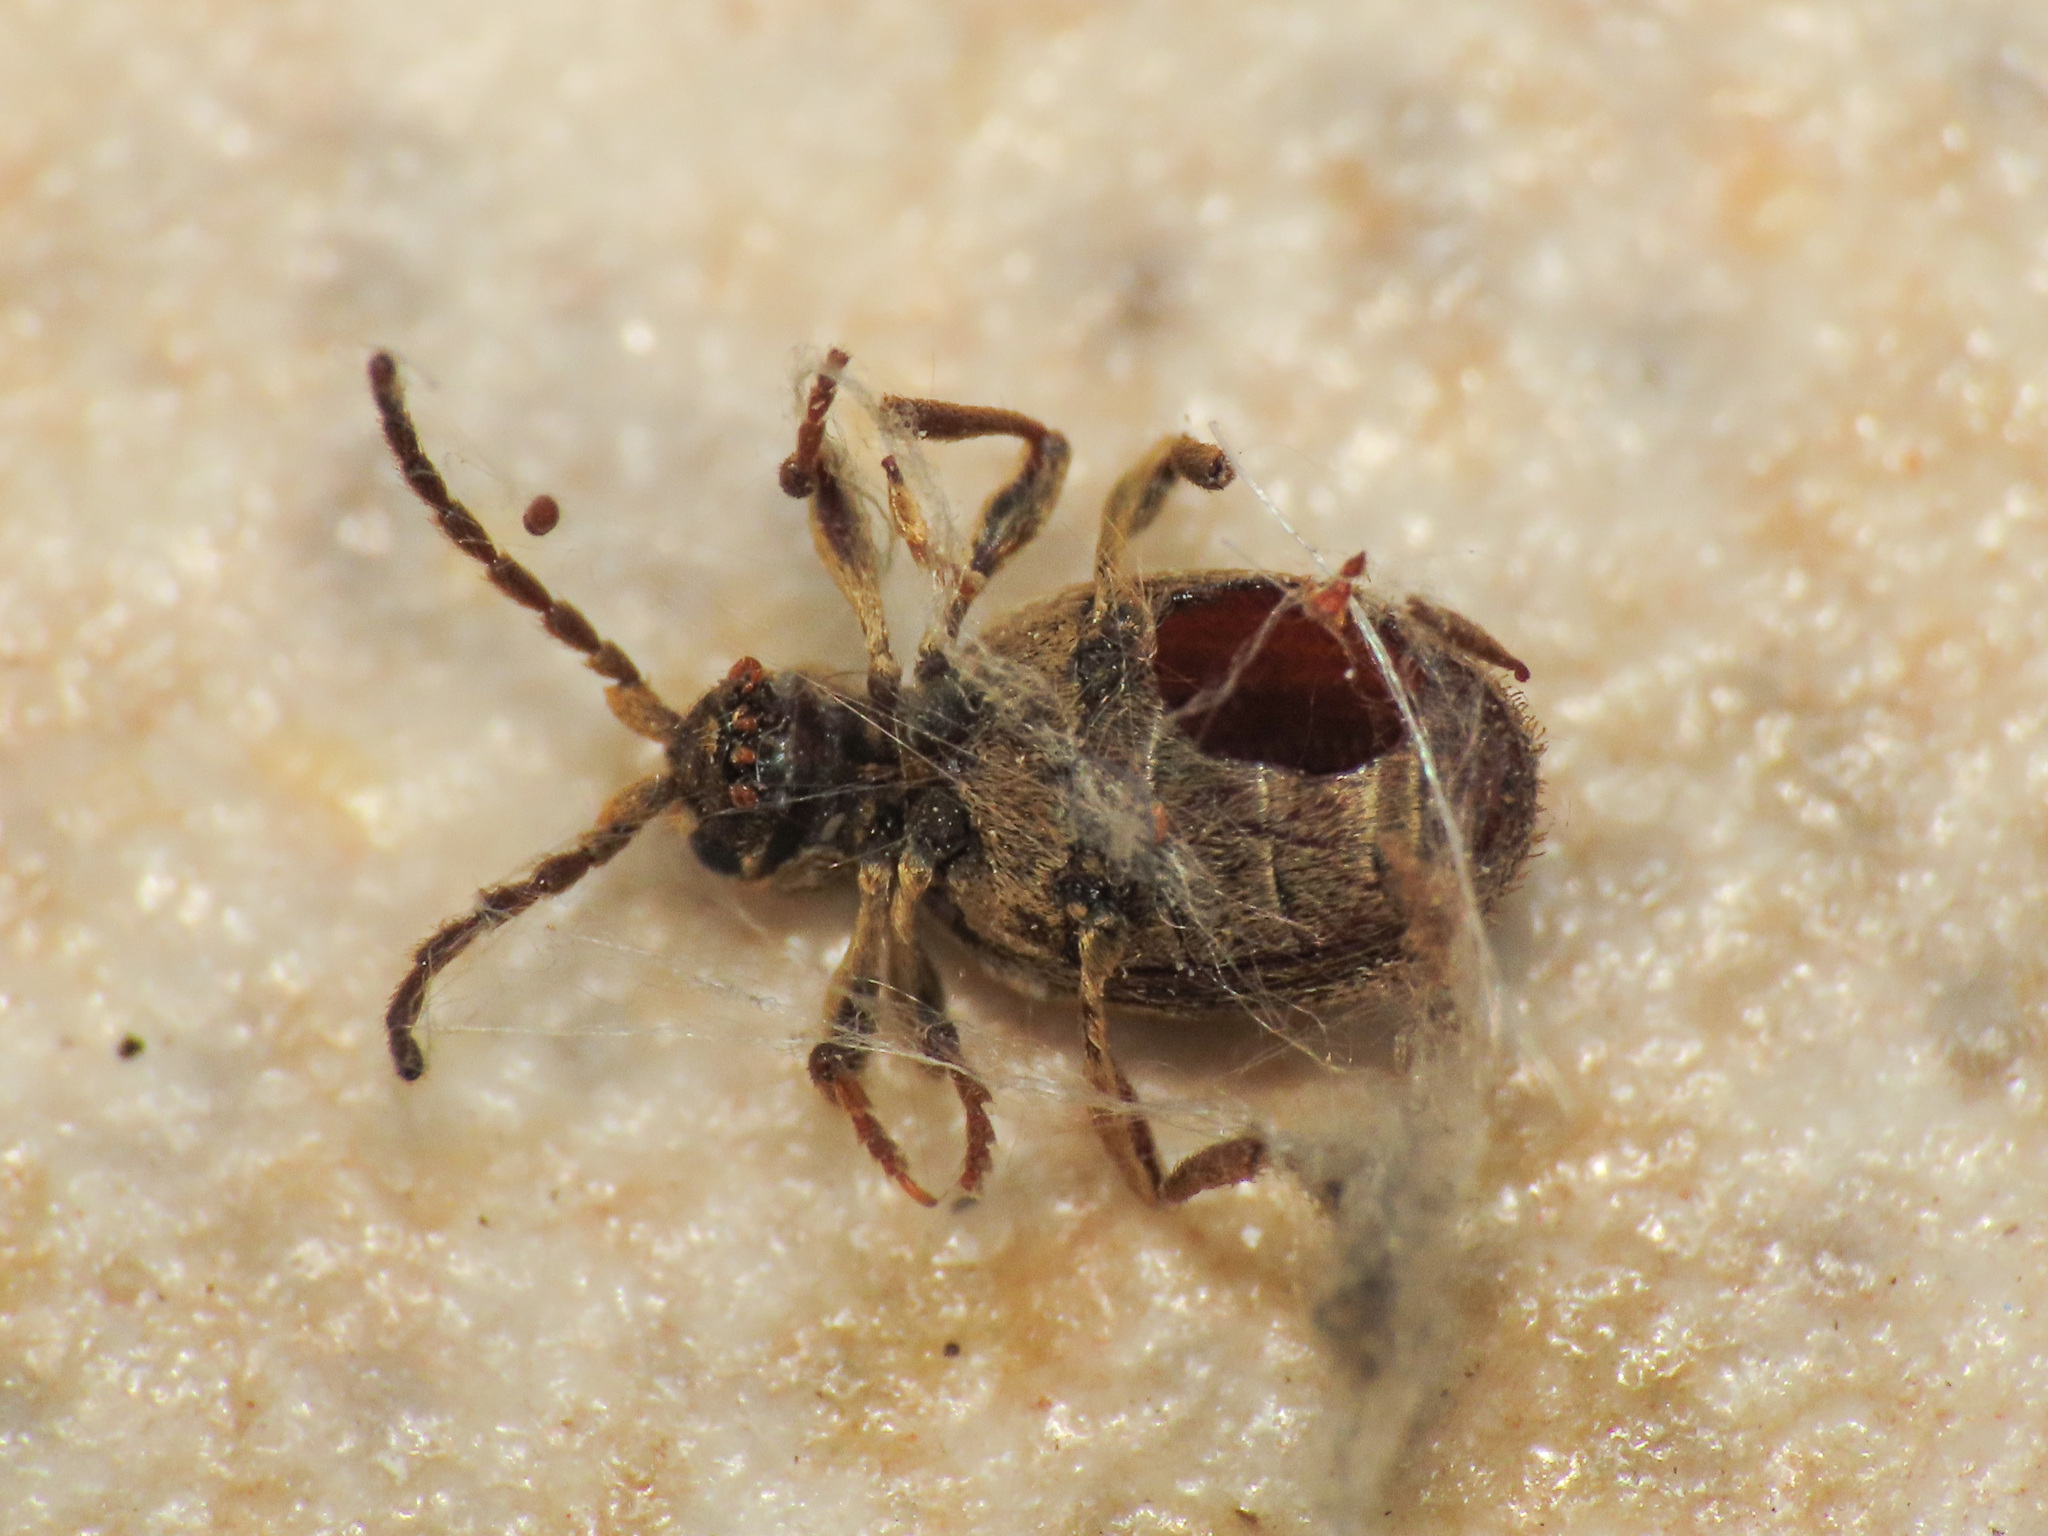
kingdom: Animalia
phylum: Arthropoda
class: Insecta
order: Coleoptera
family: Ptinidae
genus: Ptinus
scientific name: Ptinus fur
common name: White-marked spider beetle
